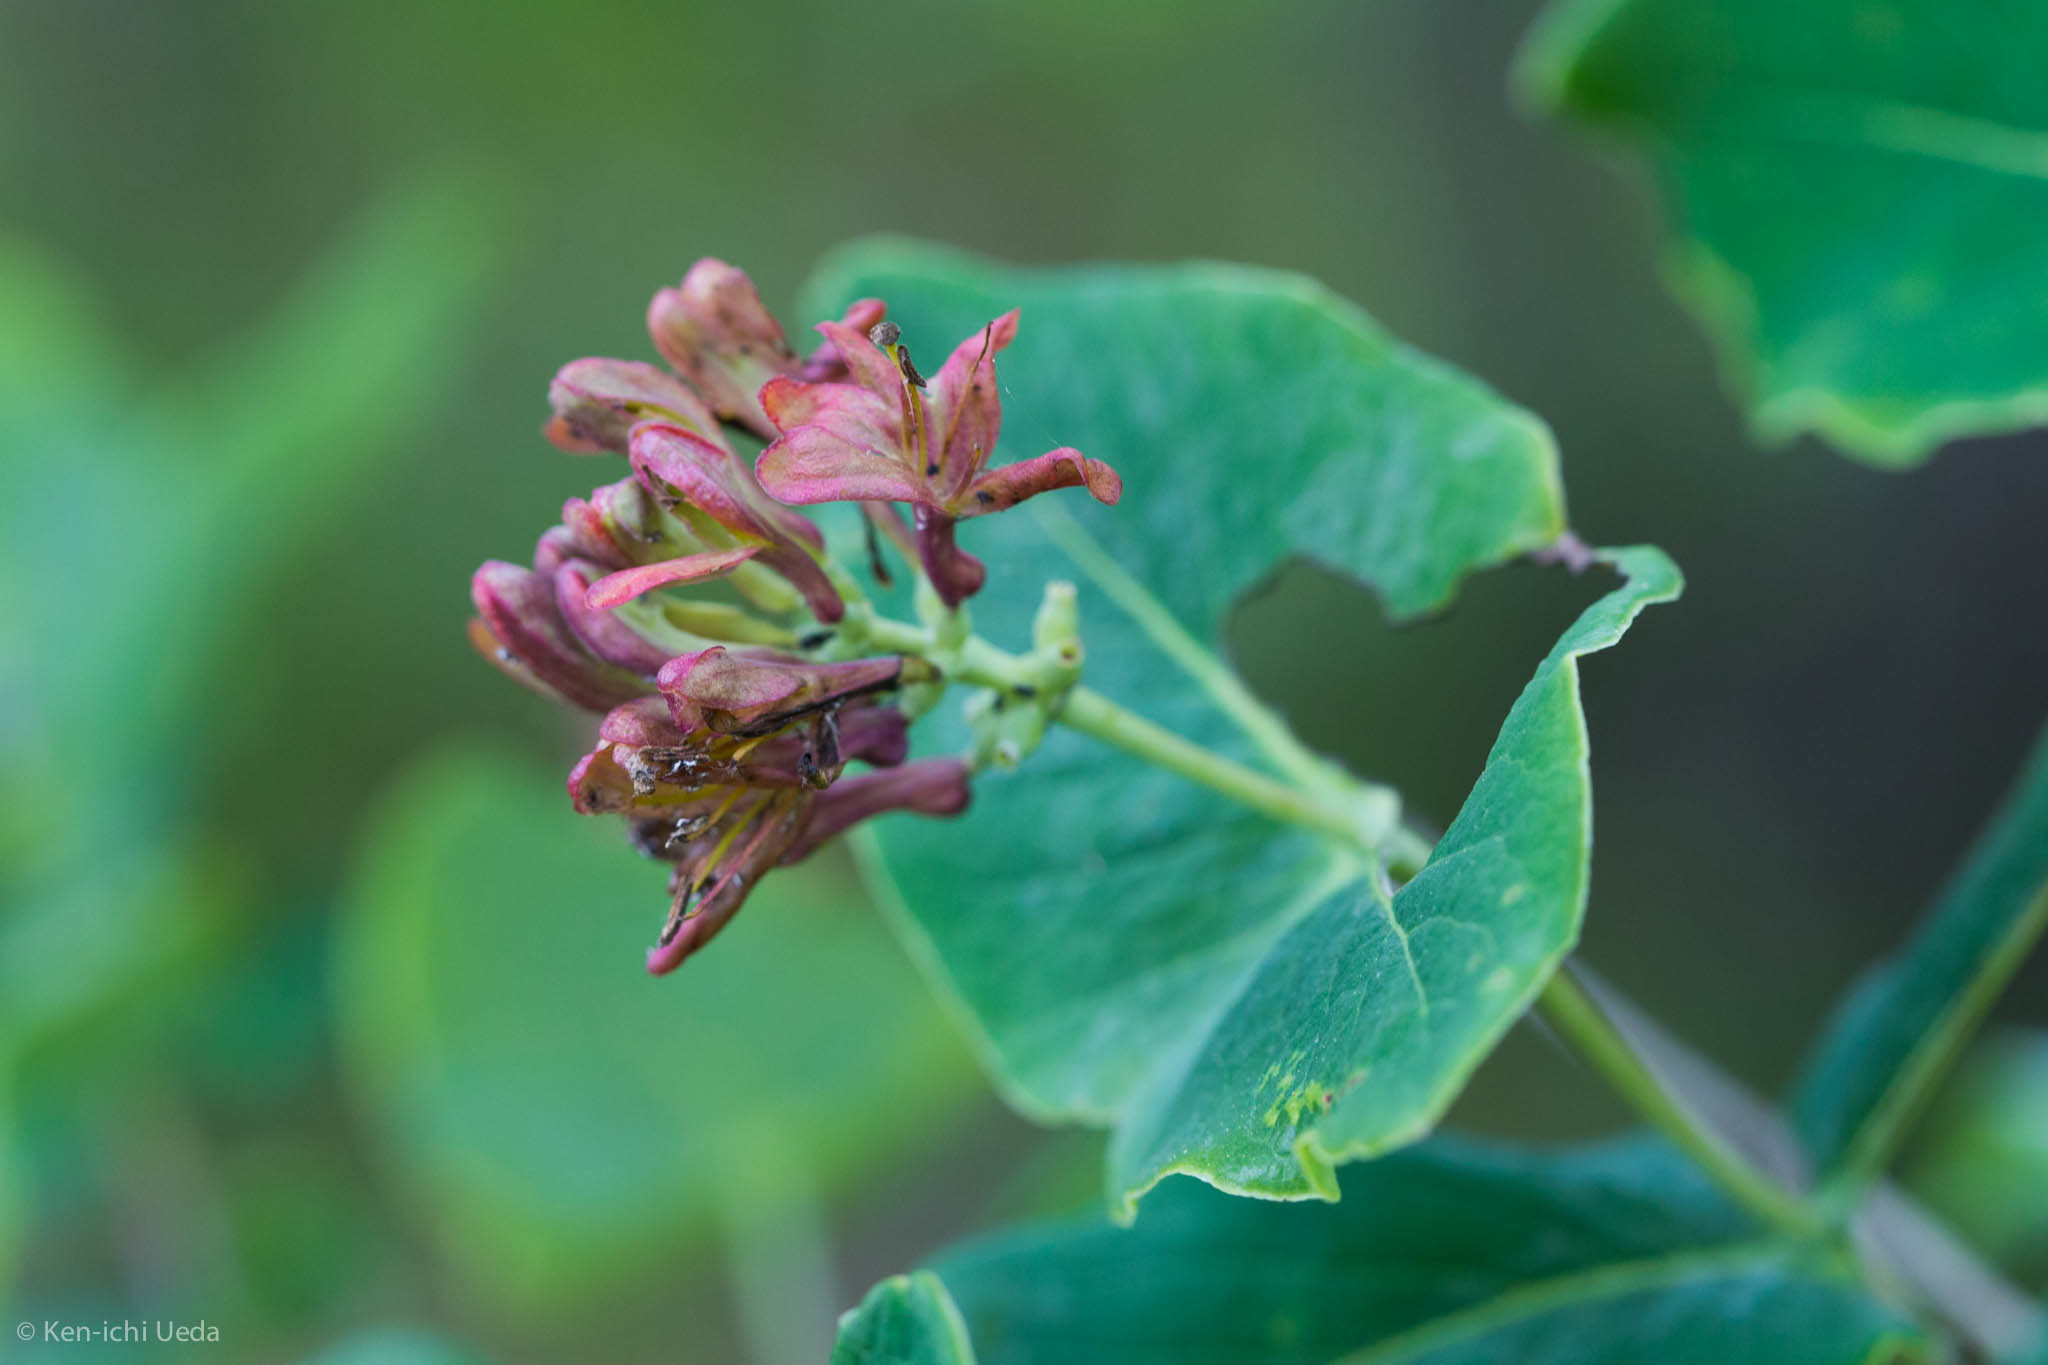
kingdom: Plantae
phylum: Tracheophyta
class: Magnoliopsida
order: Dipsacales
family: Caprifoliaceae
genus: Lonicera
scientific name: Lonicera dioica
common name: Limber honeysuckle
